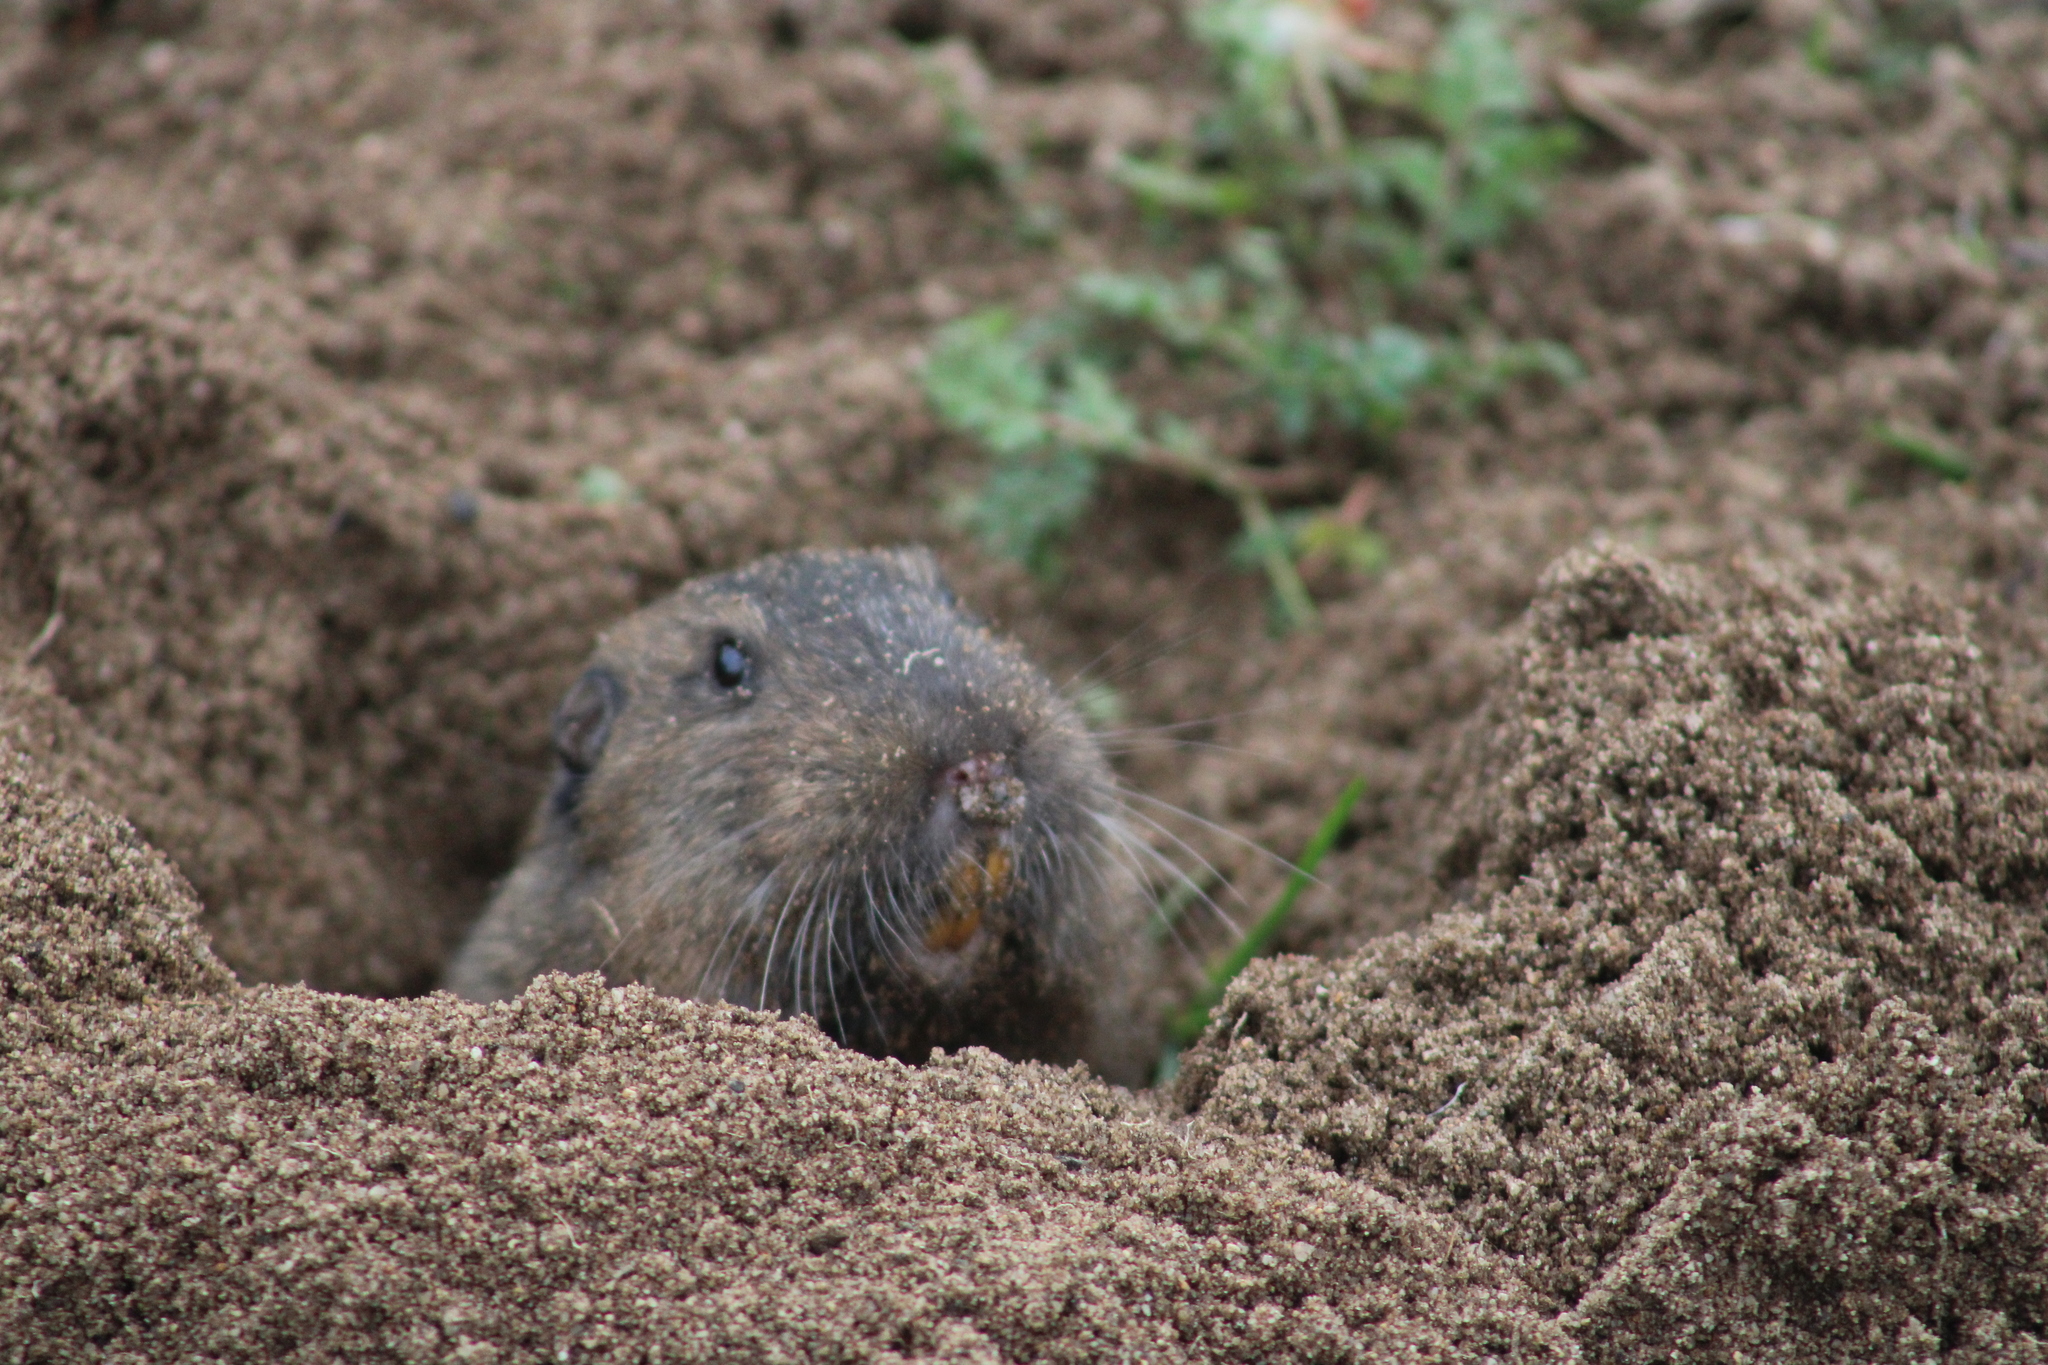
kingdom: Animalia
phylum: Chordata
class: Mammalia
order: Rodentia
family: Geomyidae
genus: Thomomys
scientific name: Thomomys bottae
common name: Botta's pocket gopher
